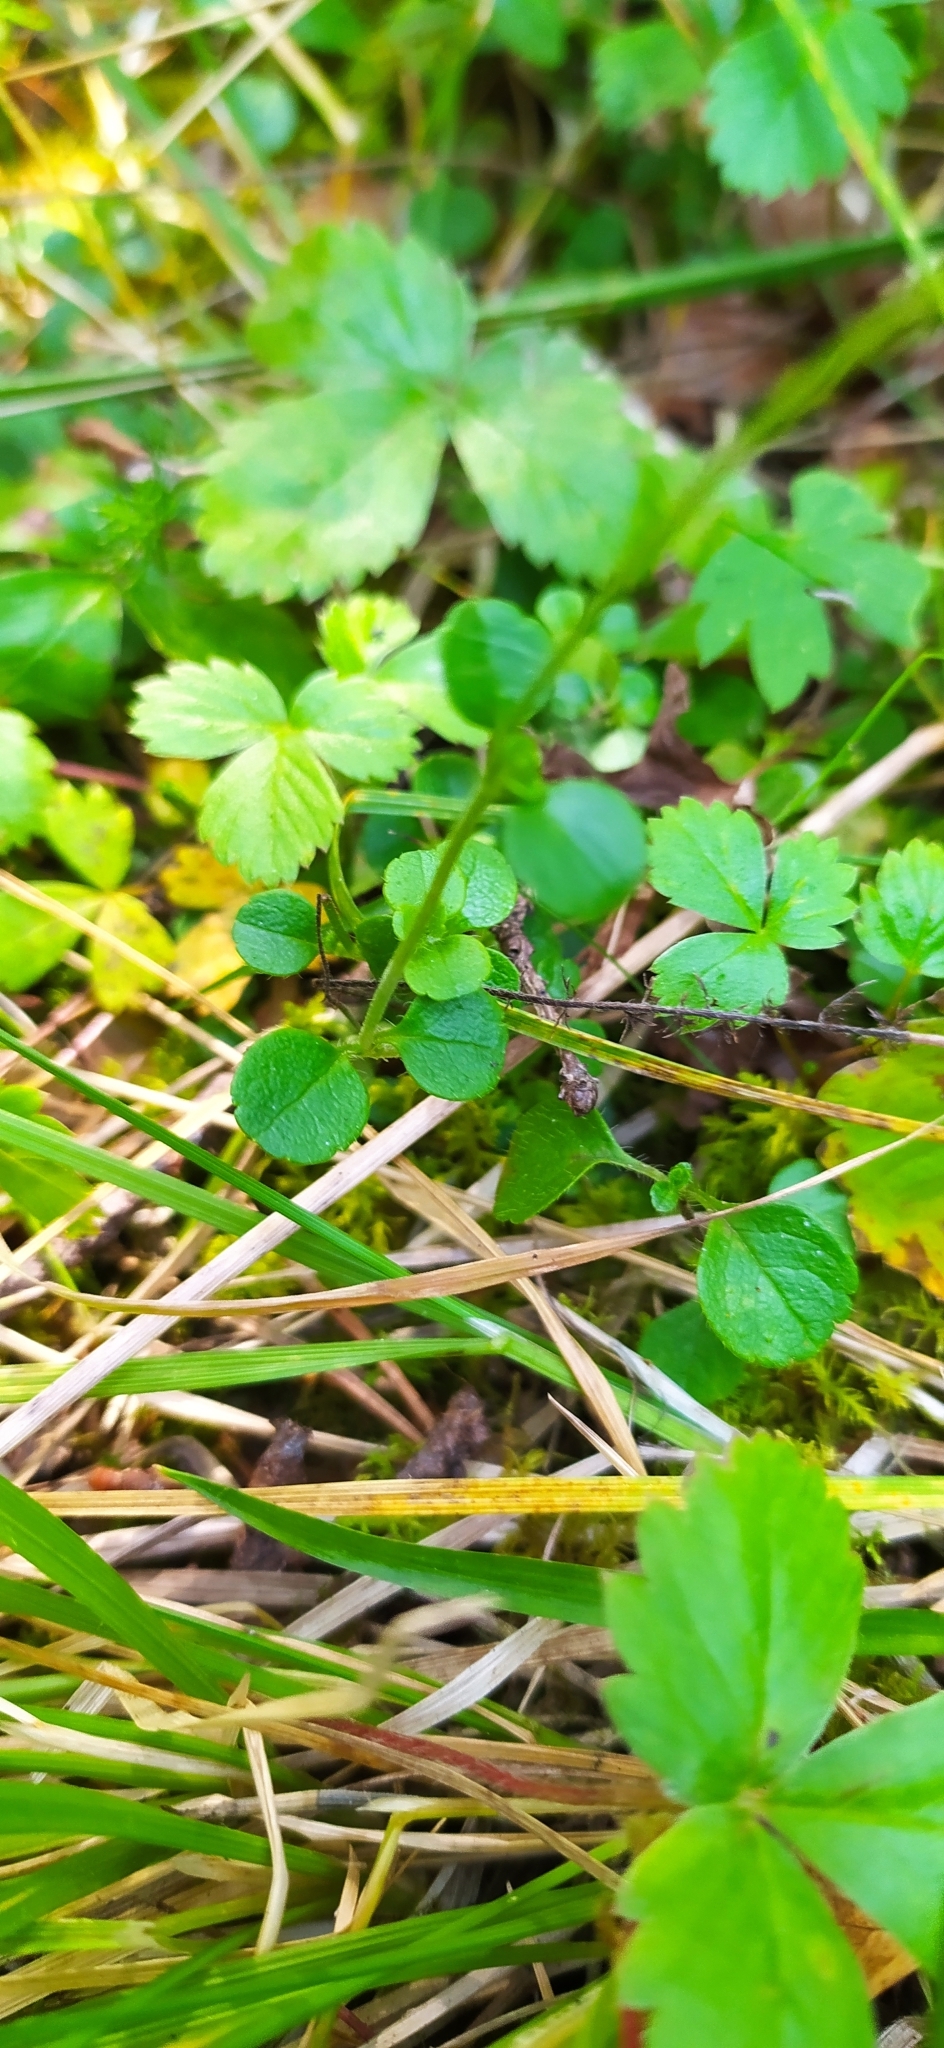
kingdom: Plantae
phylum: Tracheophyta
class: Magnoliopsida
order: Dipsacales
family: Caprifoliaceae
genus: Linnaea
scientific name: Linnaea borealis
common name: Twinflower
